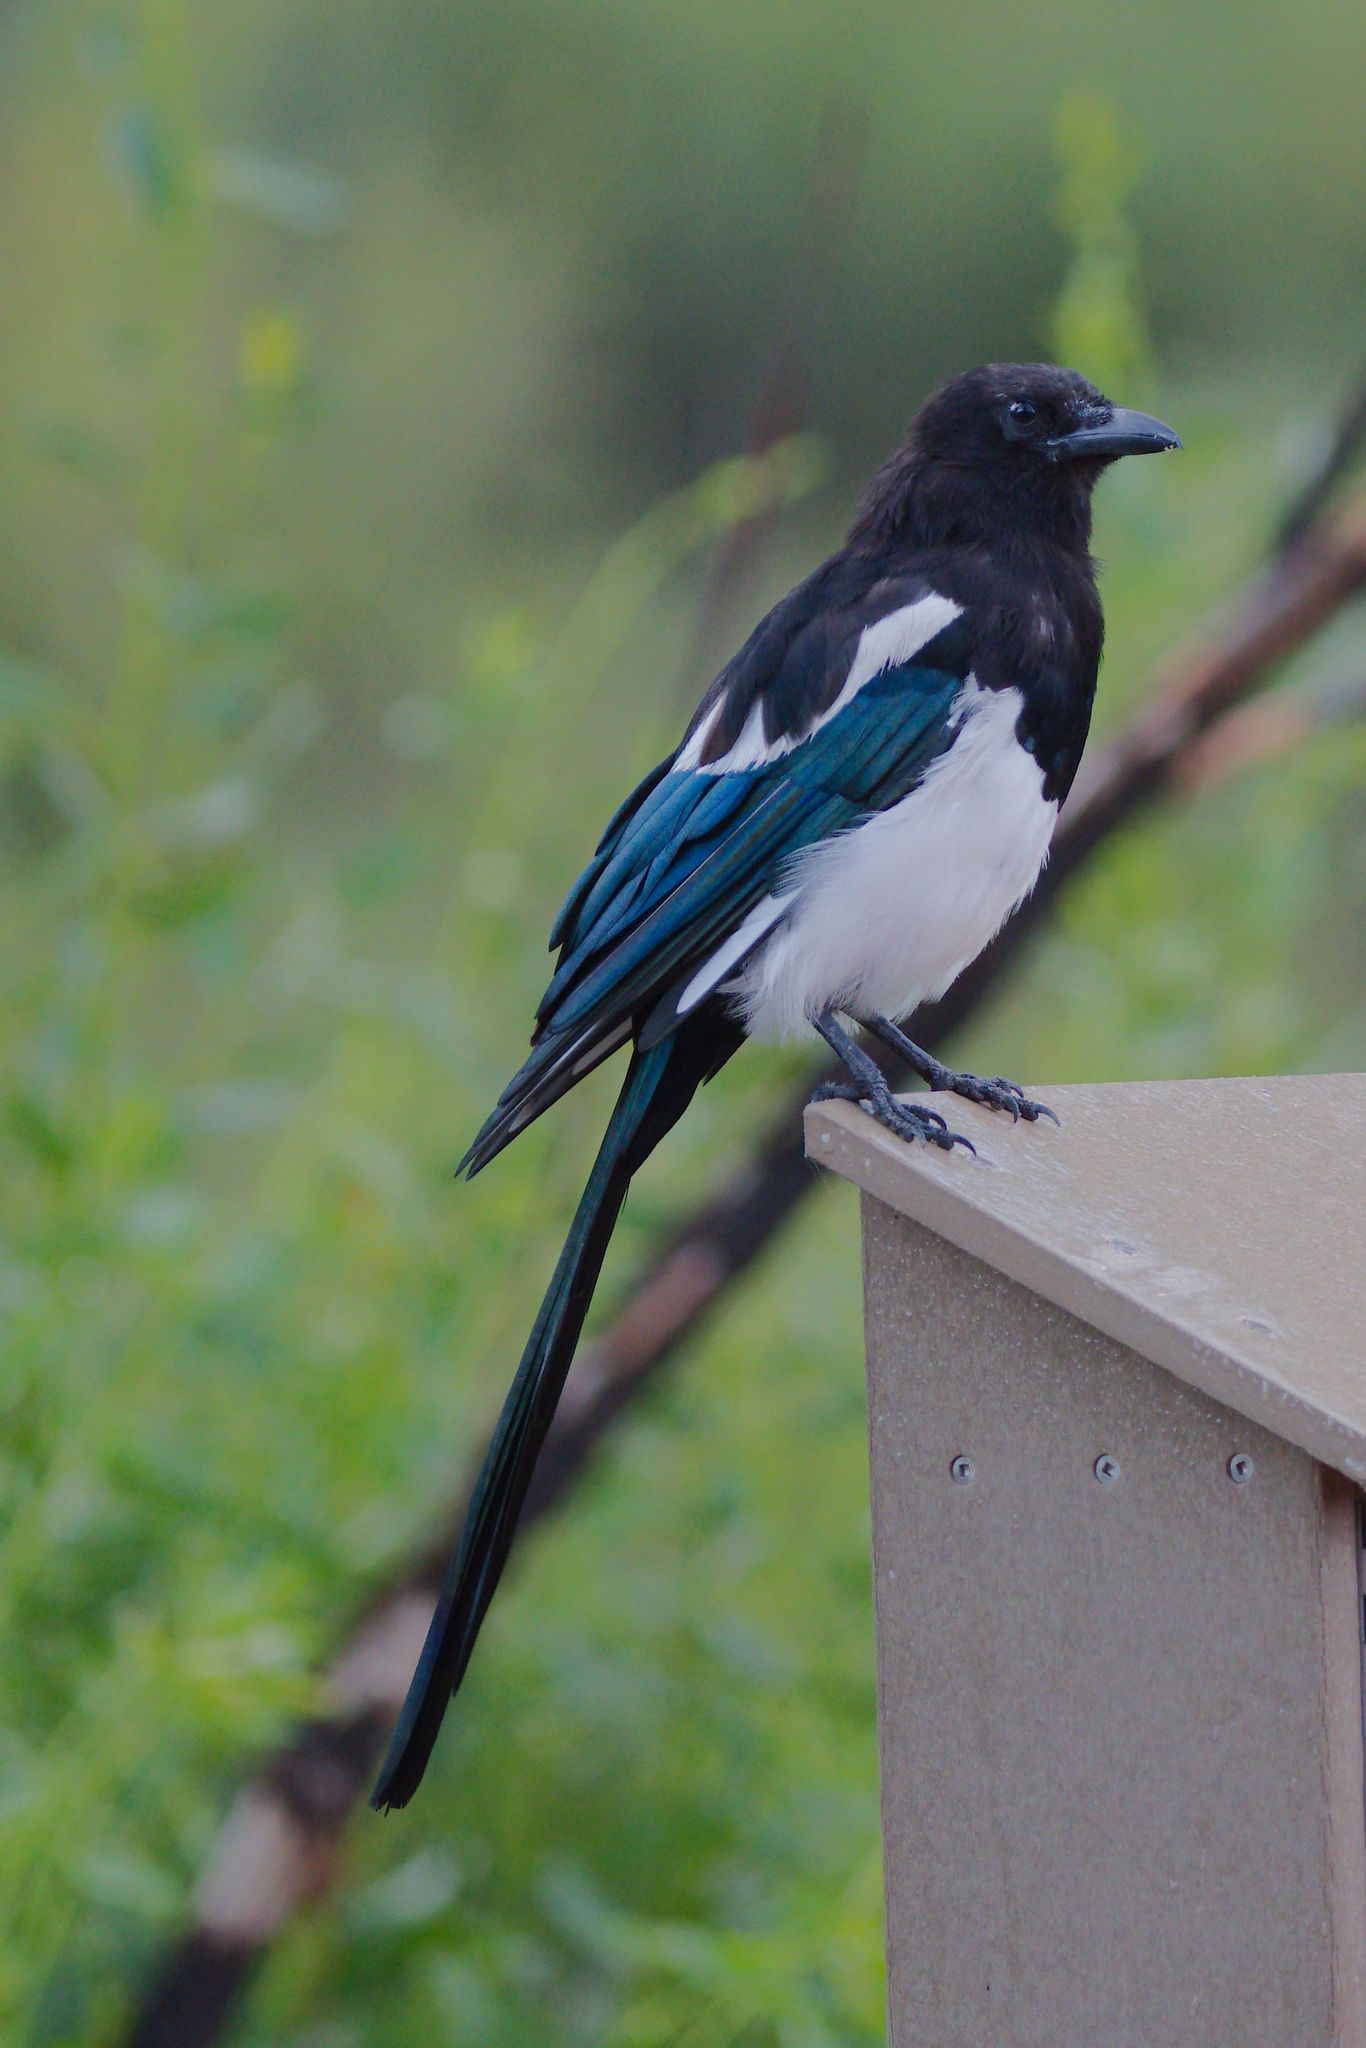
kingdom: Animalia
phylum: Chordata
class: Aves
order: Passeriformes
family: Corvidae
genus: Pica
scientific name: Pica hudsonia
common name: Black-billed magpie
